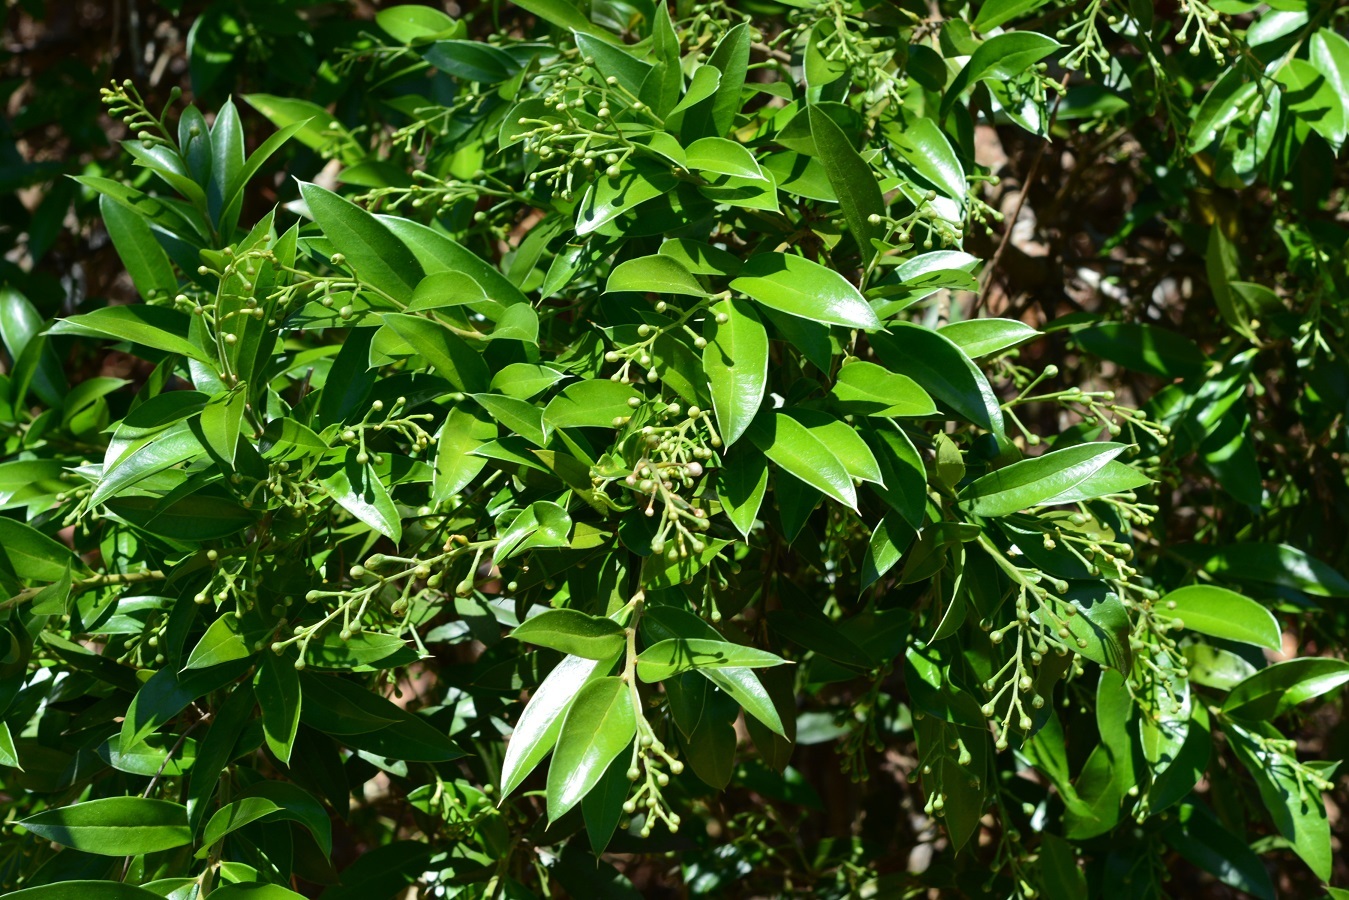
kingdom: Plantae
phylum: Tracheophyta
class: Magnoliopsida
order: Ericales
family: Primulaceae
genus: Bonellia
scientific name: Bonellia macrocarpa
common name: Primrose
